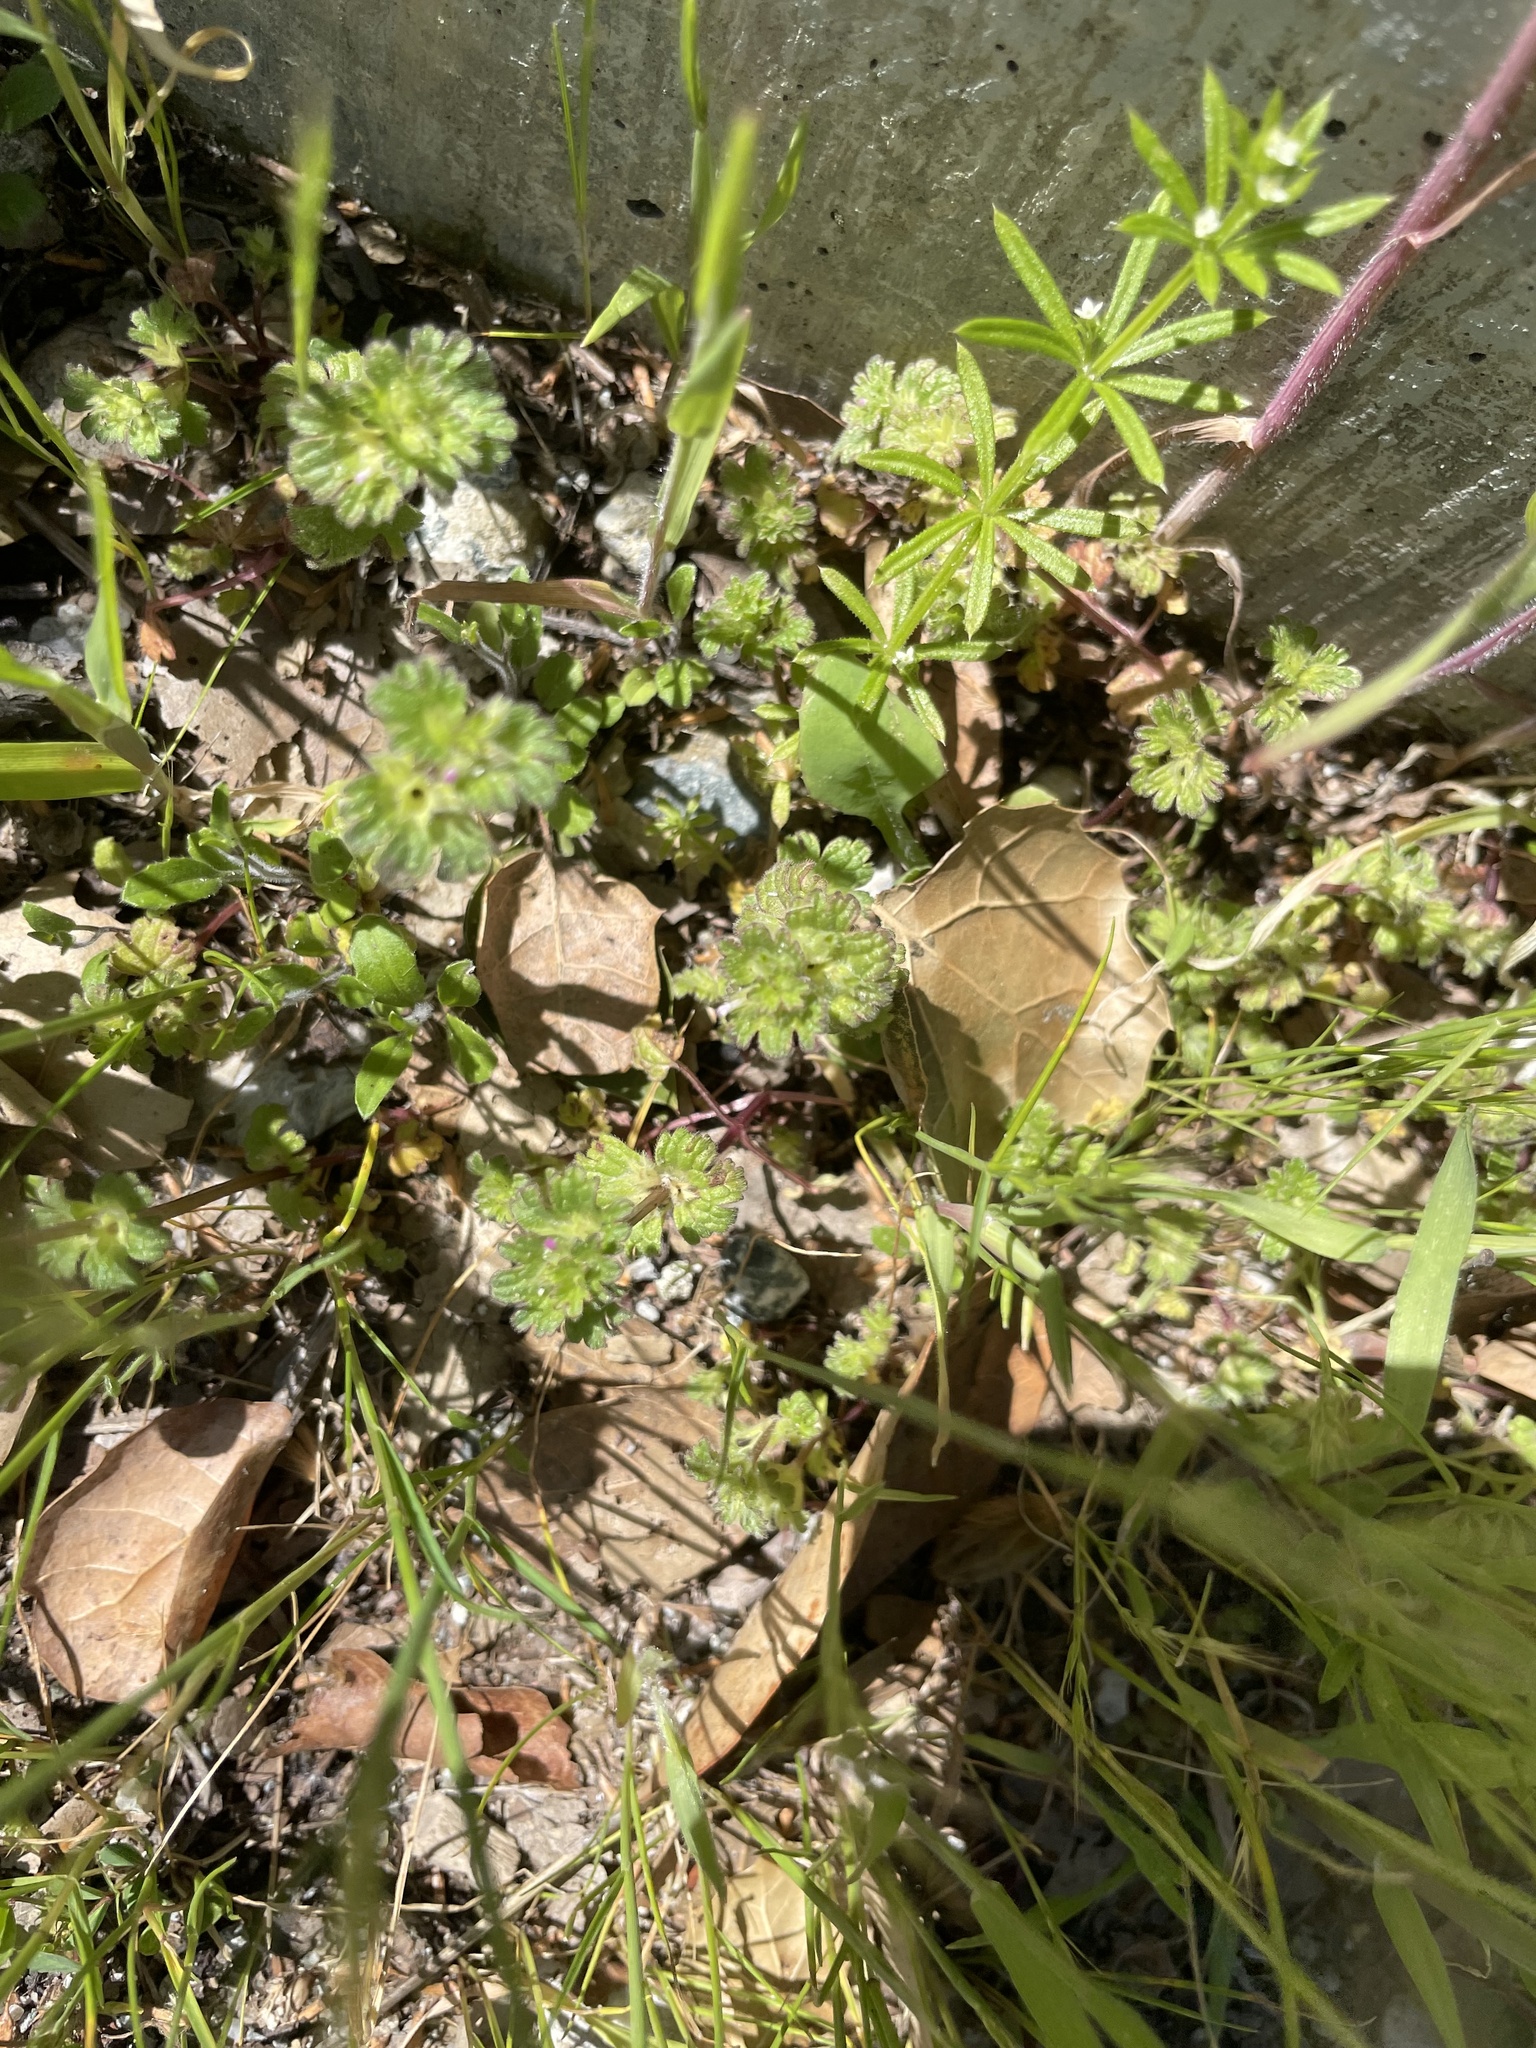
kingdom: Plantae
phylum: Tracheophyta
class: Magnoliopsida
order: Lamiales
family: Lamiaceae
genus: Lamium
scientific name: Lamium amplexicaule
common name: Henbit dead-nettle
